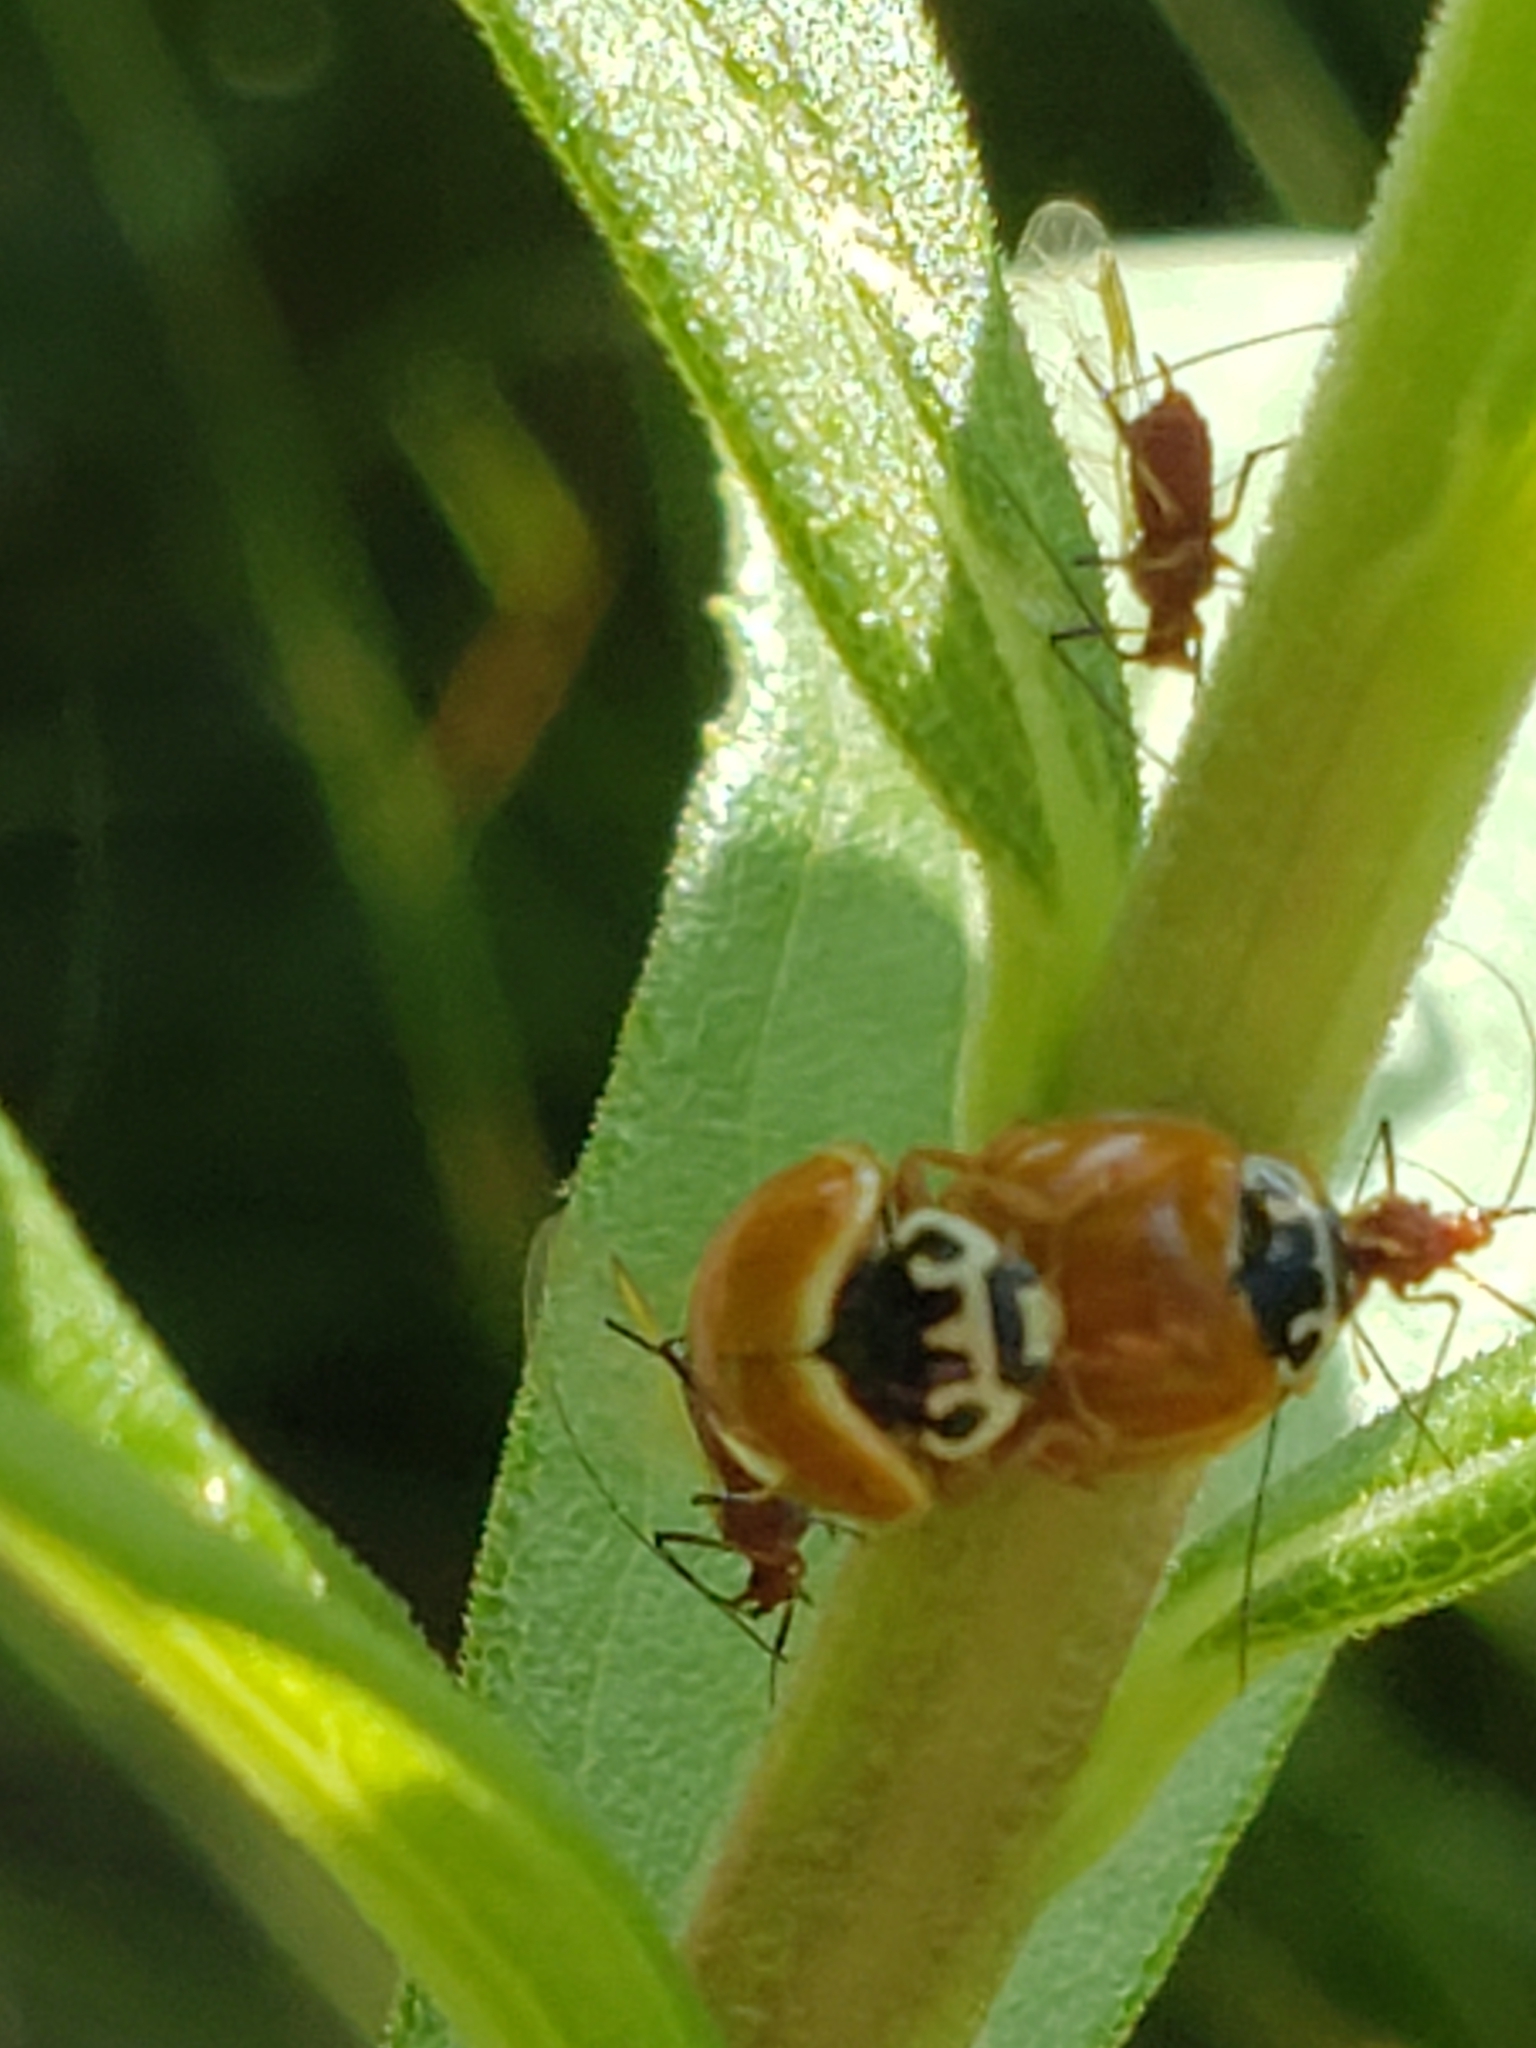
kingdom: Animalia
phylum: Arthropoda
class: Insecta
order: Coleoptera
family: Coccinellidae
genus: Cycloneda
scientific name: Cycloneda munda
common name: Polished lady beetle
